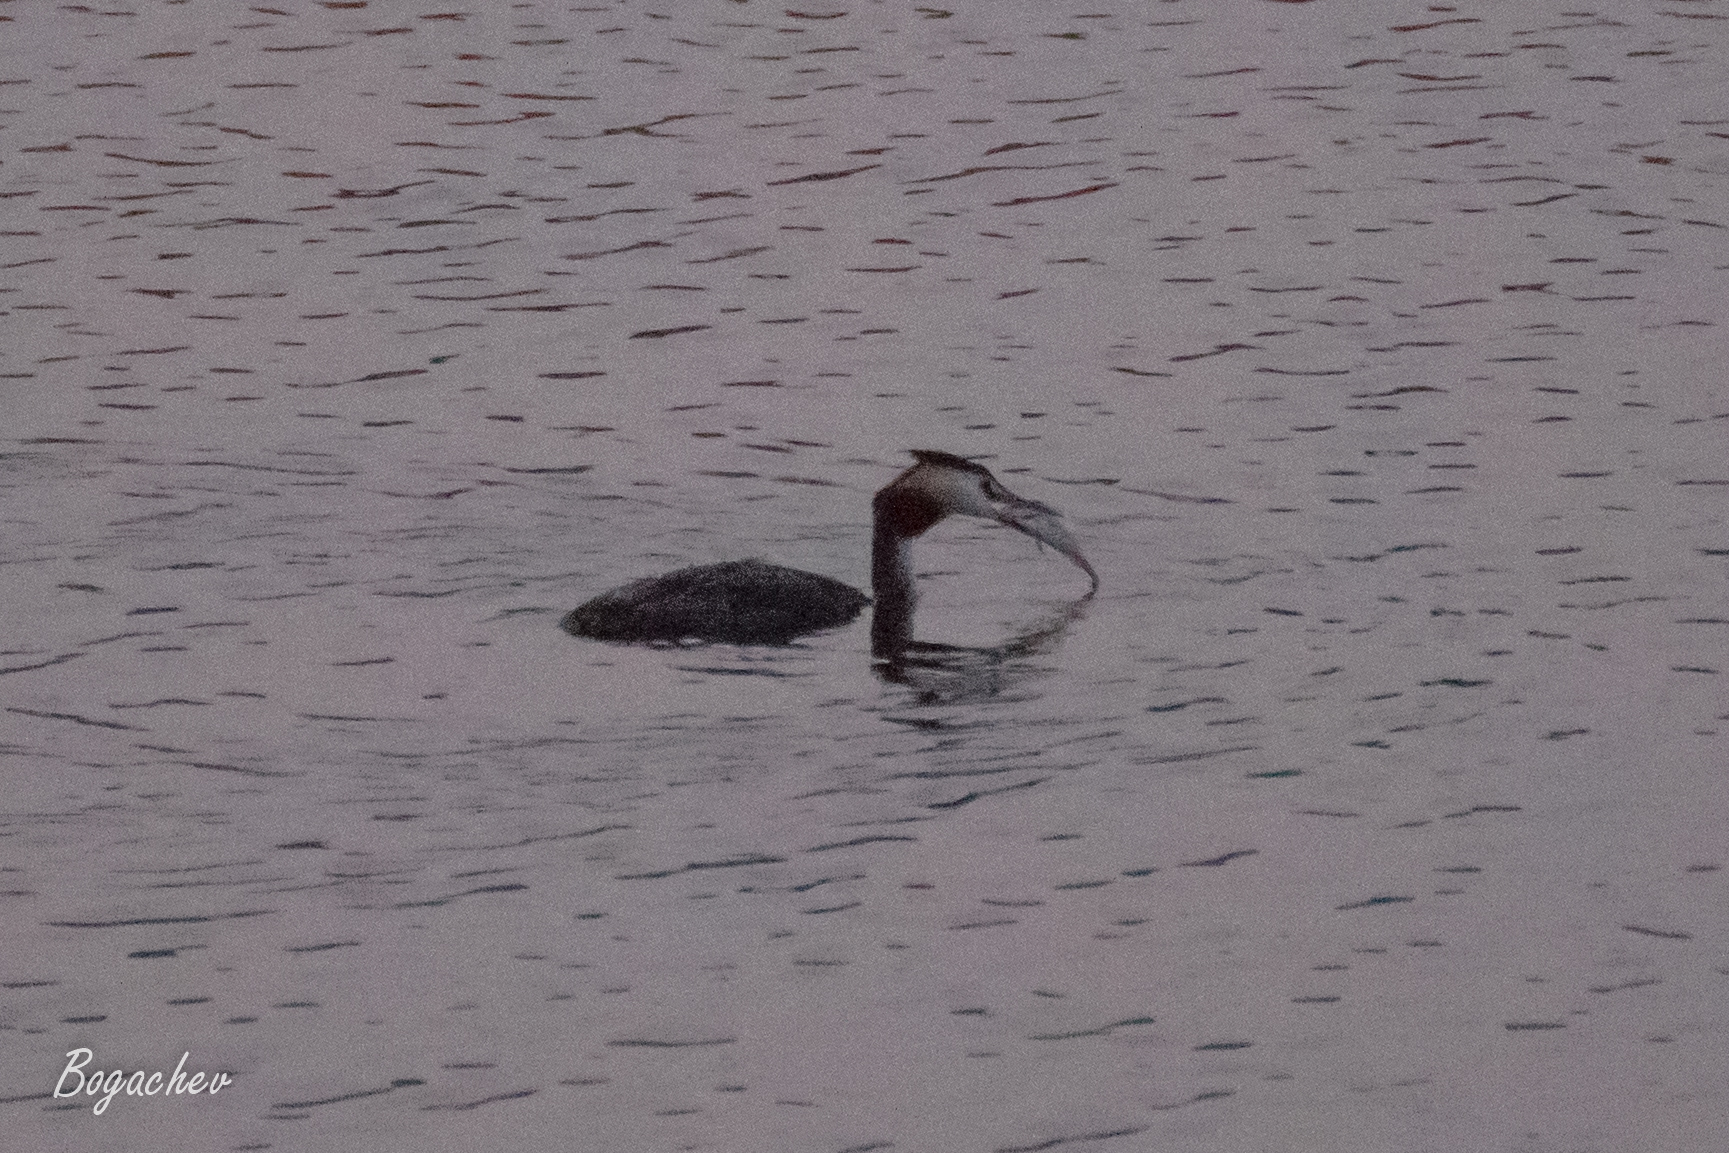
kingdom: Animalia
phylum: Chordata
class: Aves
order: Podicipediformes
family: Podicipedidae
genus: Podiceps
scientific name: Podiceps cristatus
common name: Great crested grebe
